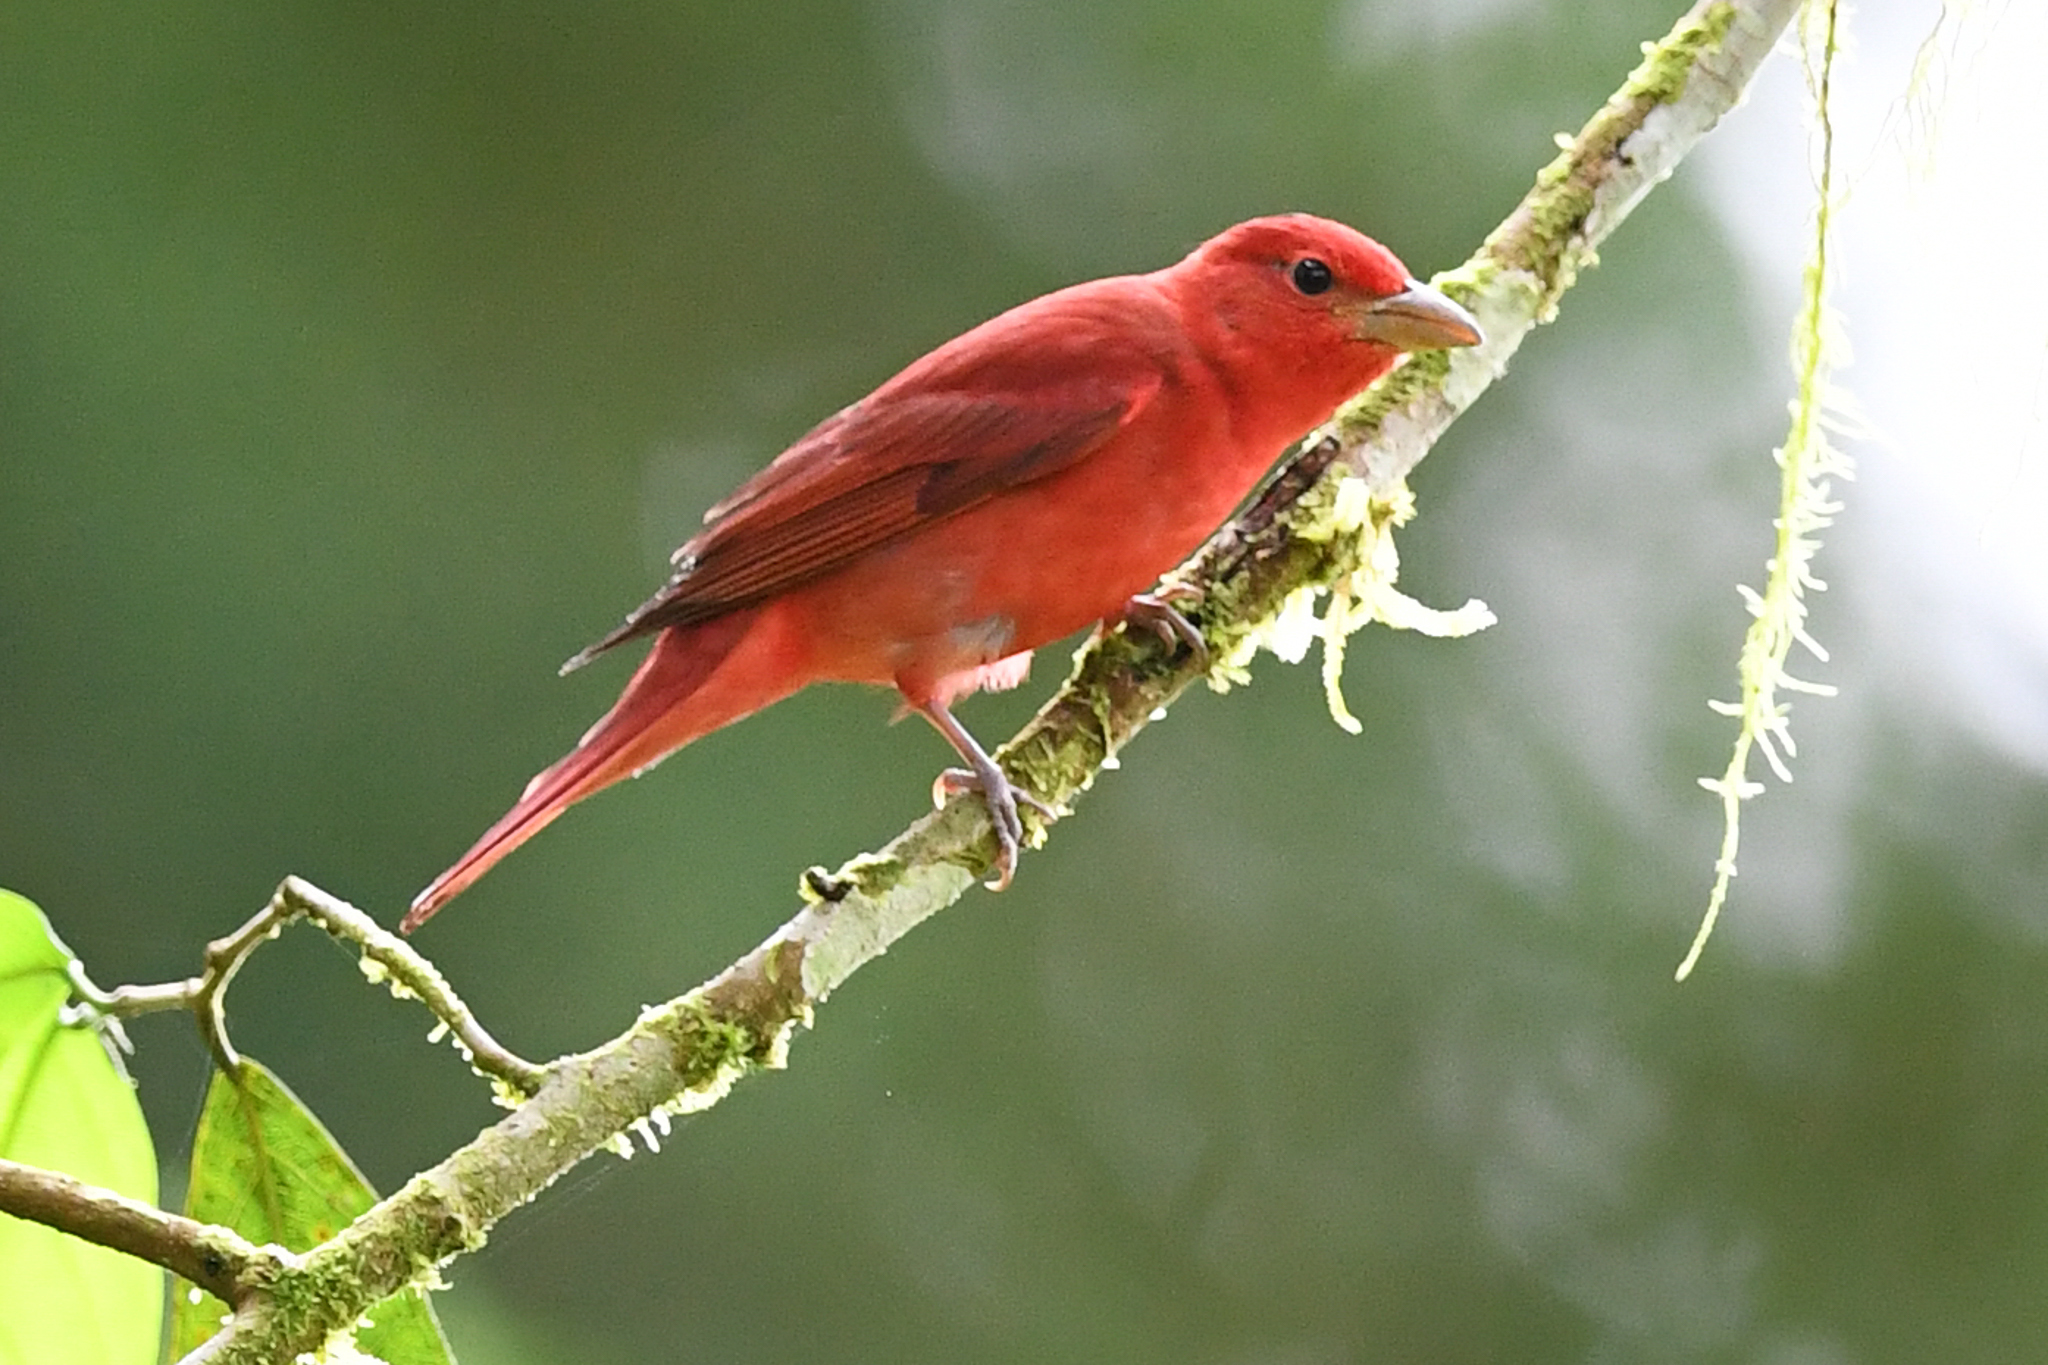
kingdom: Animalia
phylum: Chordata
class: Aves
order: Passeriformes
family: Cardinalidae
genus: Piranga
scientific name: Piranga rubra
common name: Summer tanager
